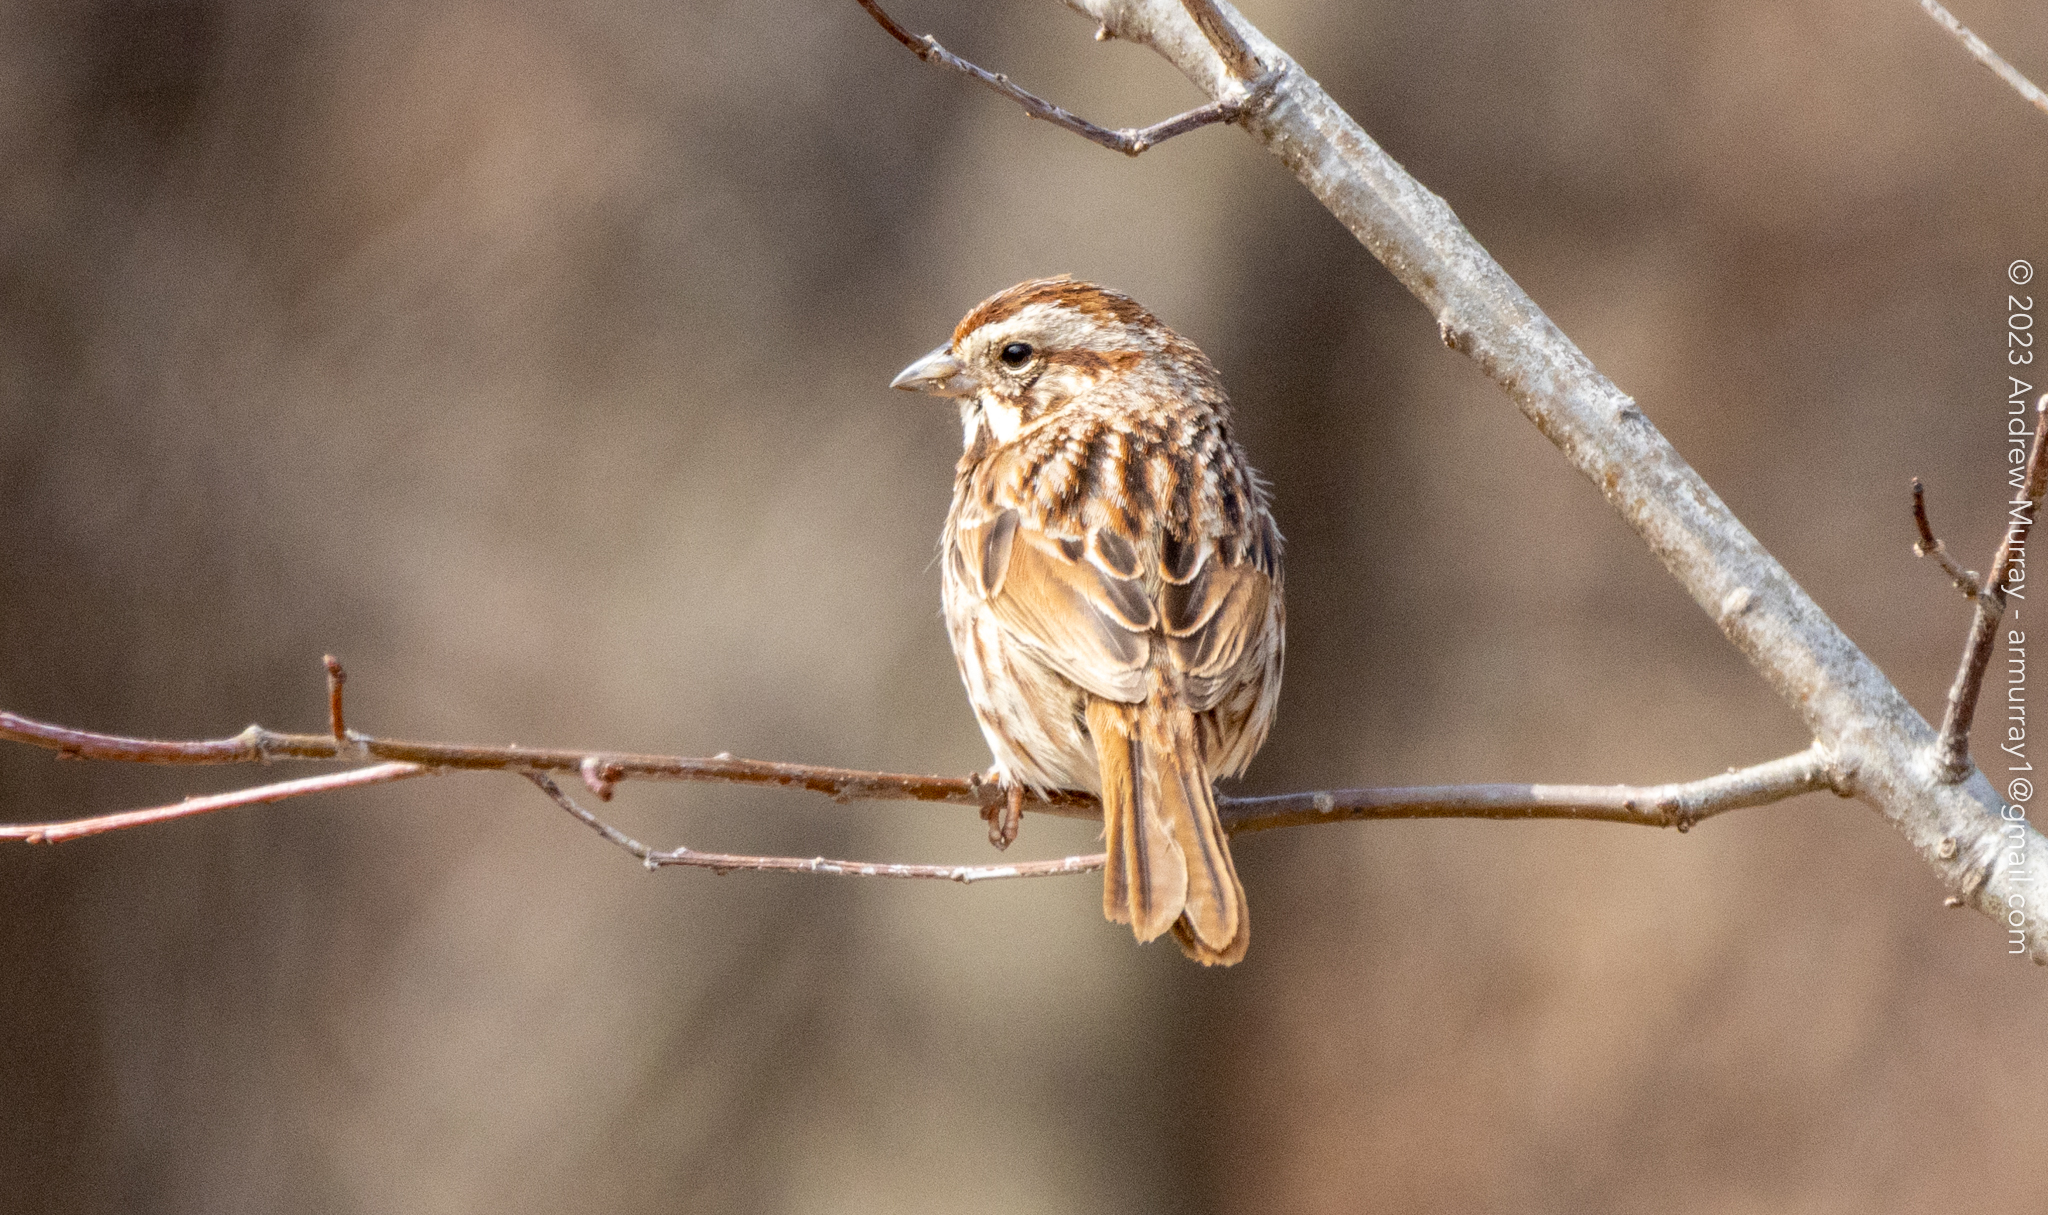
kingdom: Animalia
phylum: Chordata
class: Aves
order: Passeriformes
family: Passerellidae
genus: Melospiza
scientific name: Melospiza melodia
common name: Song sparrow
